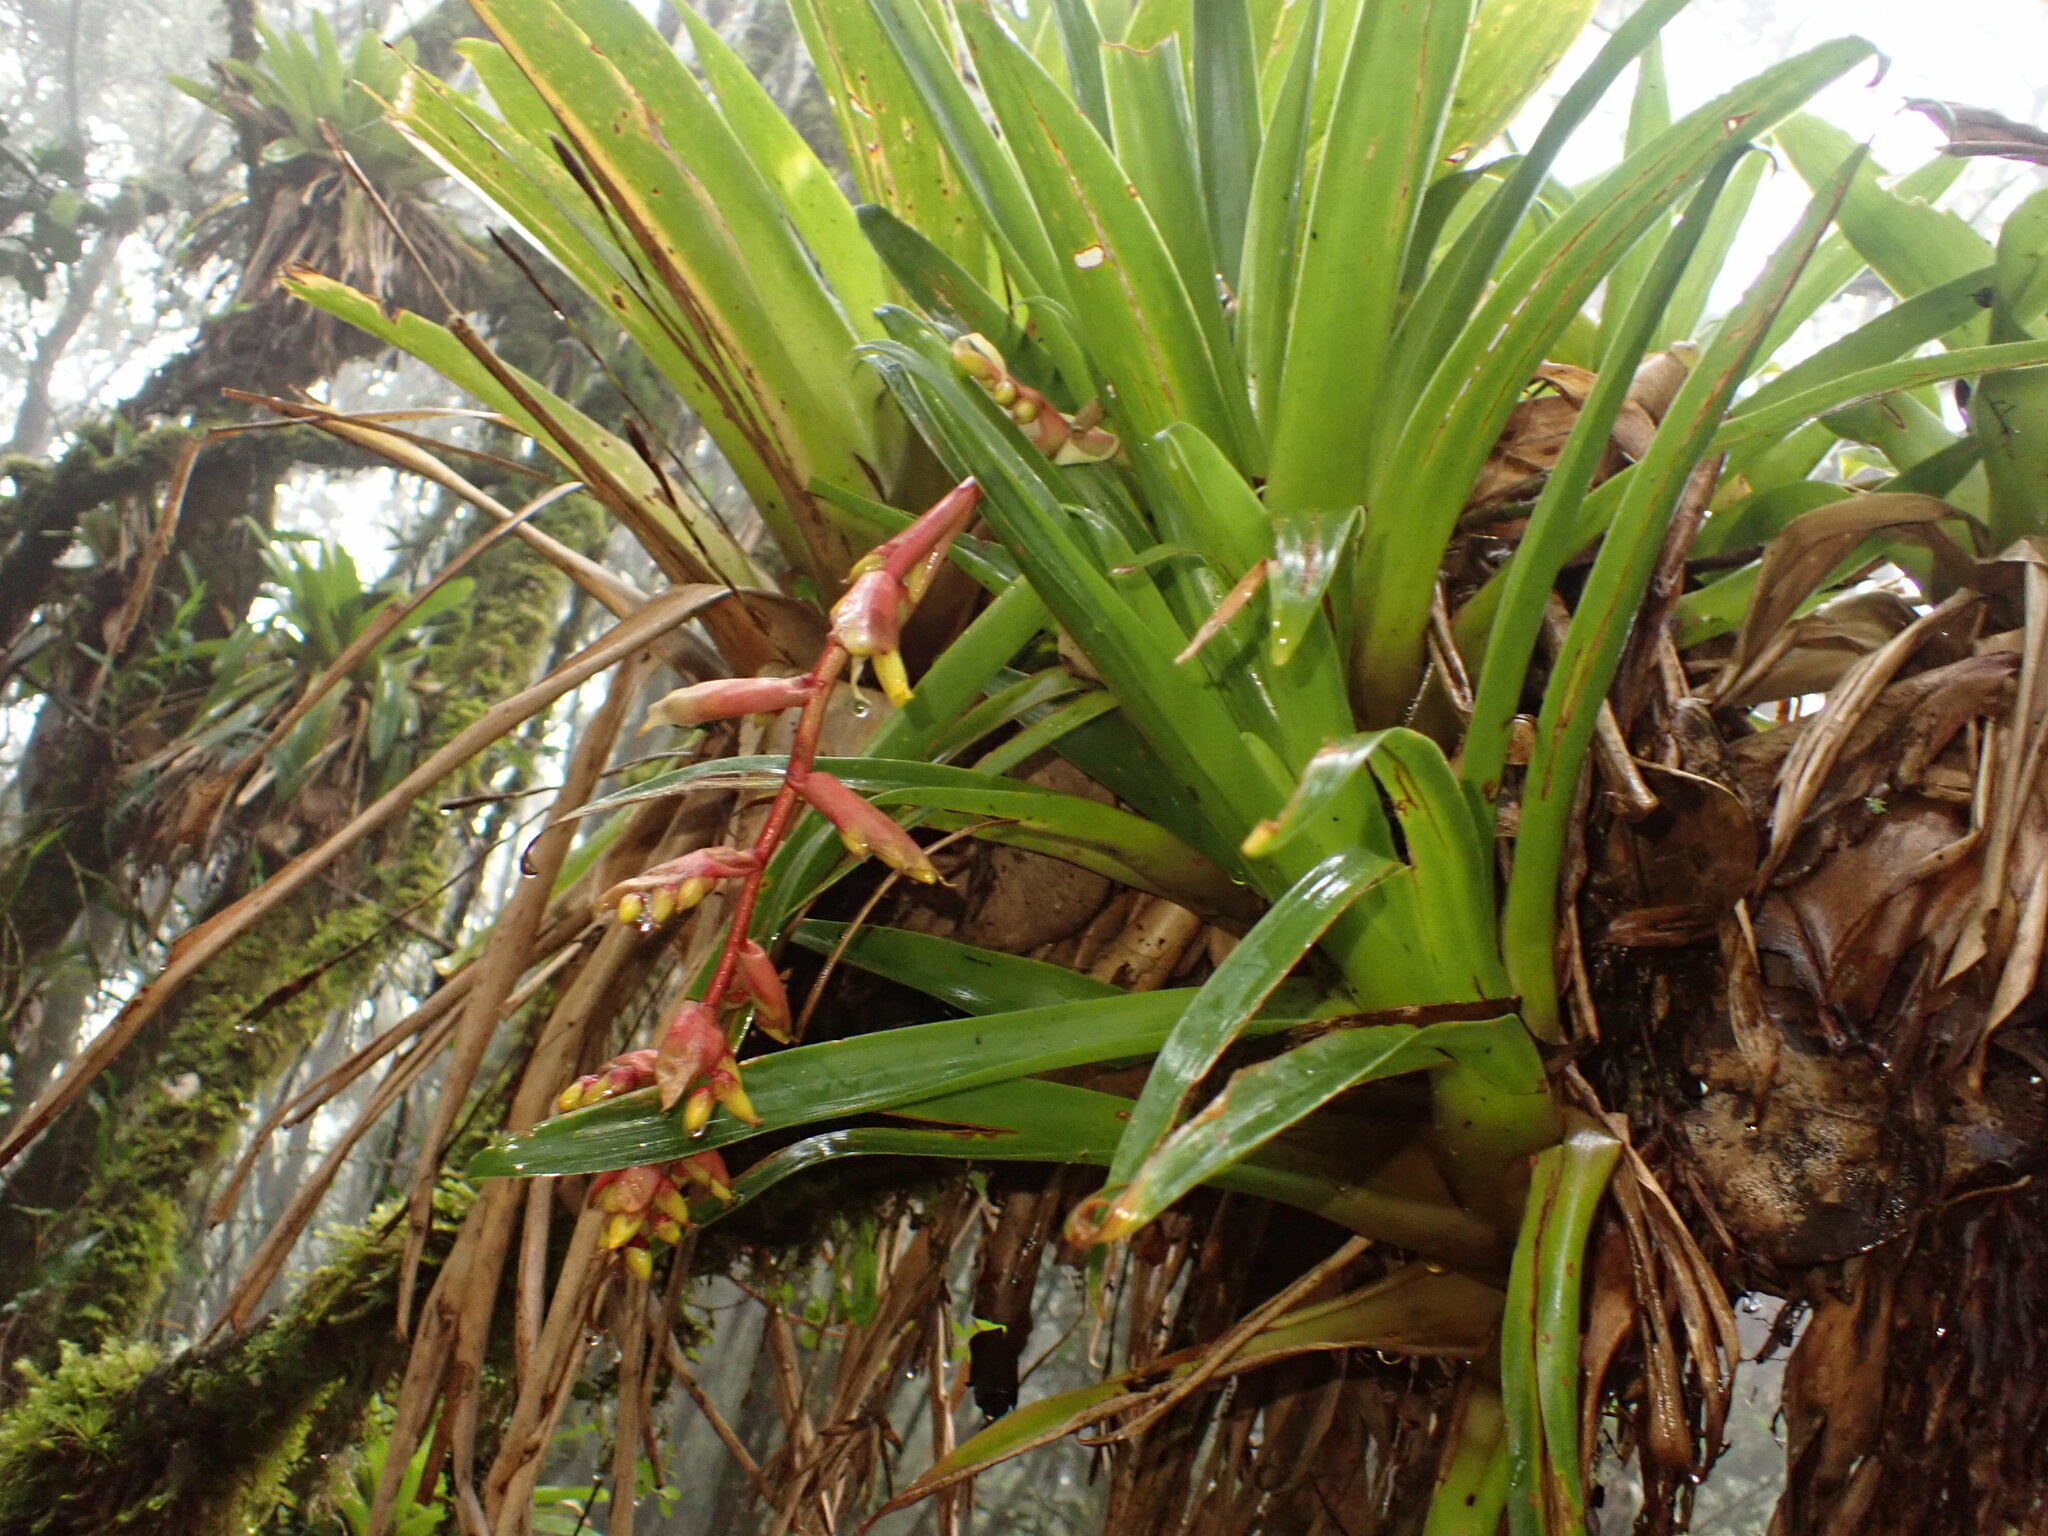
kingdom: Plantae
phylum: Tracheophyta
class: Liliopsida
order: Poales
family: Bromeliaceae
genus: Racinaea
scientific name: Racinaea tetrantha
